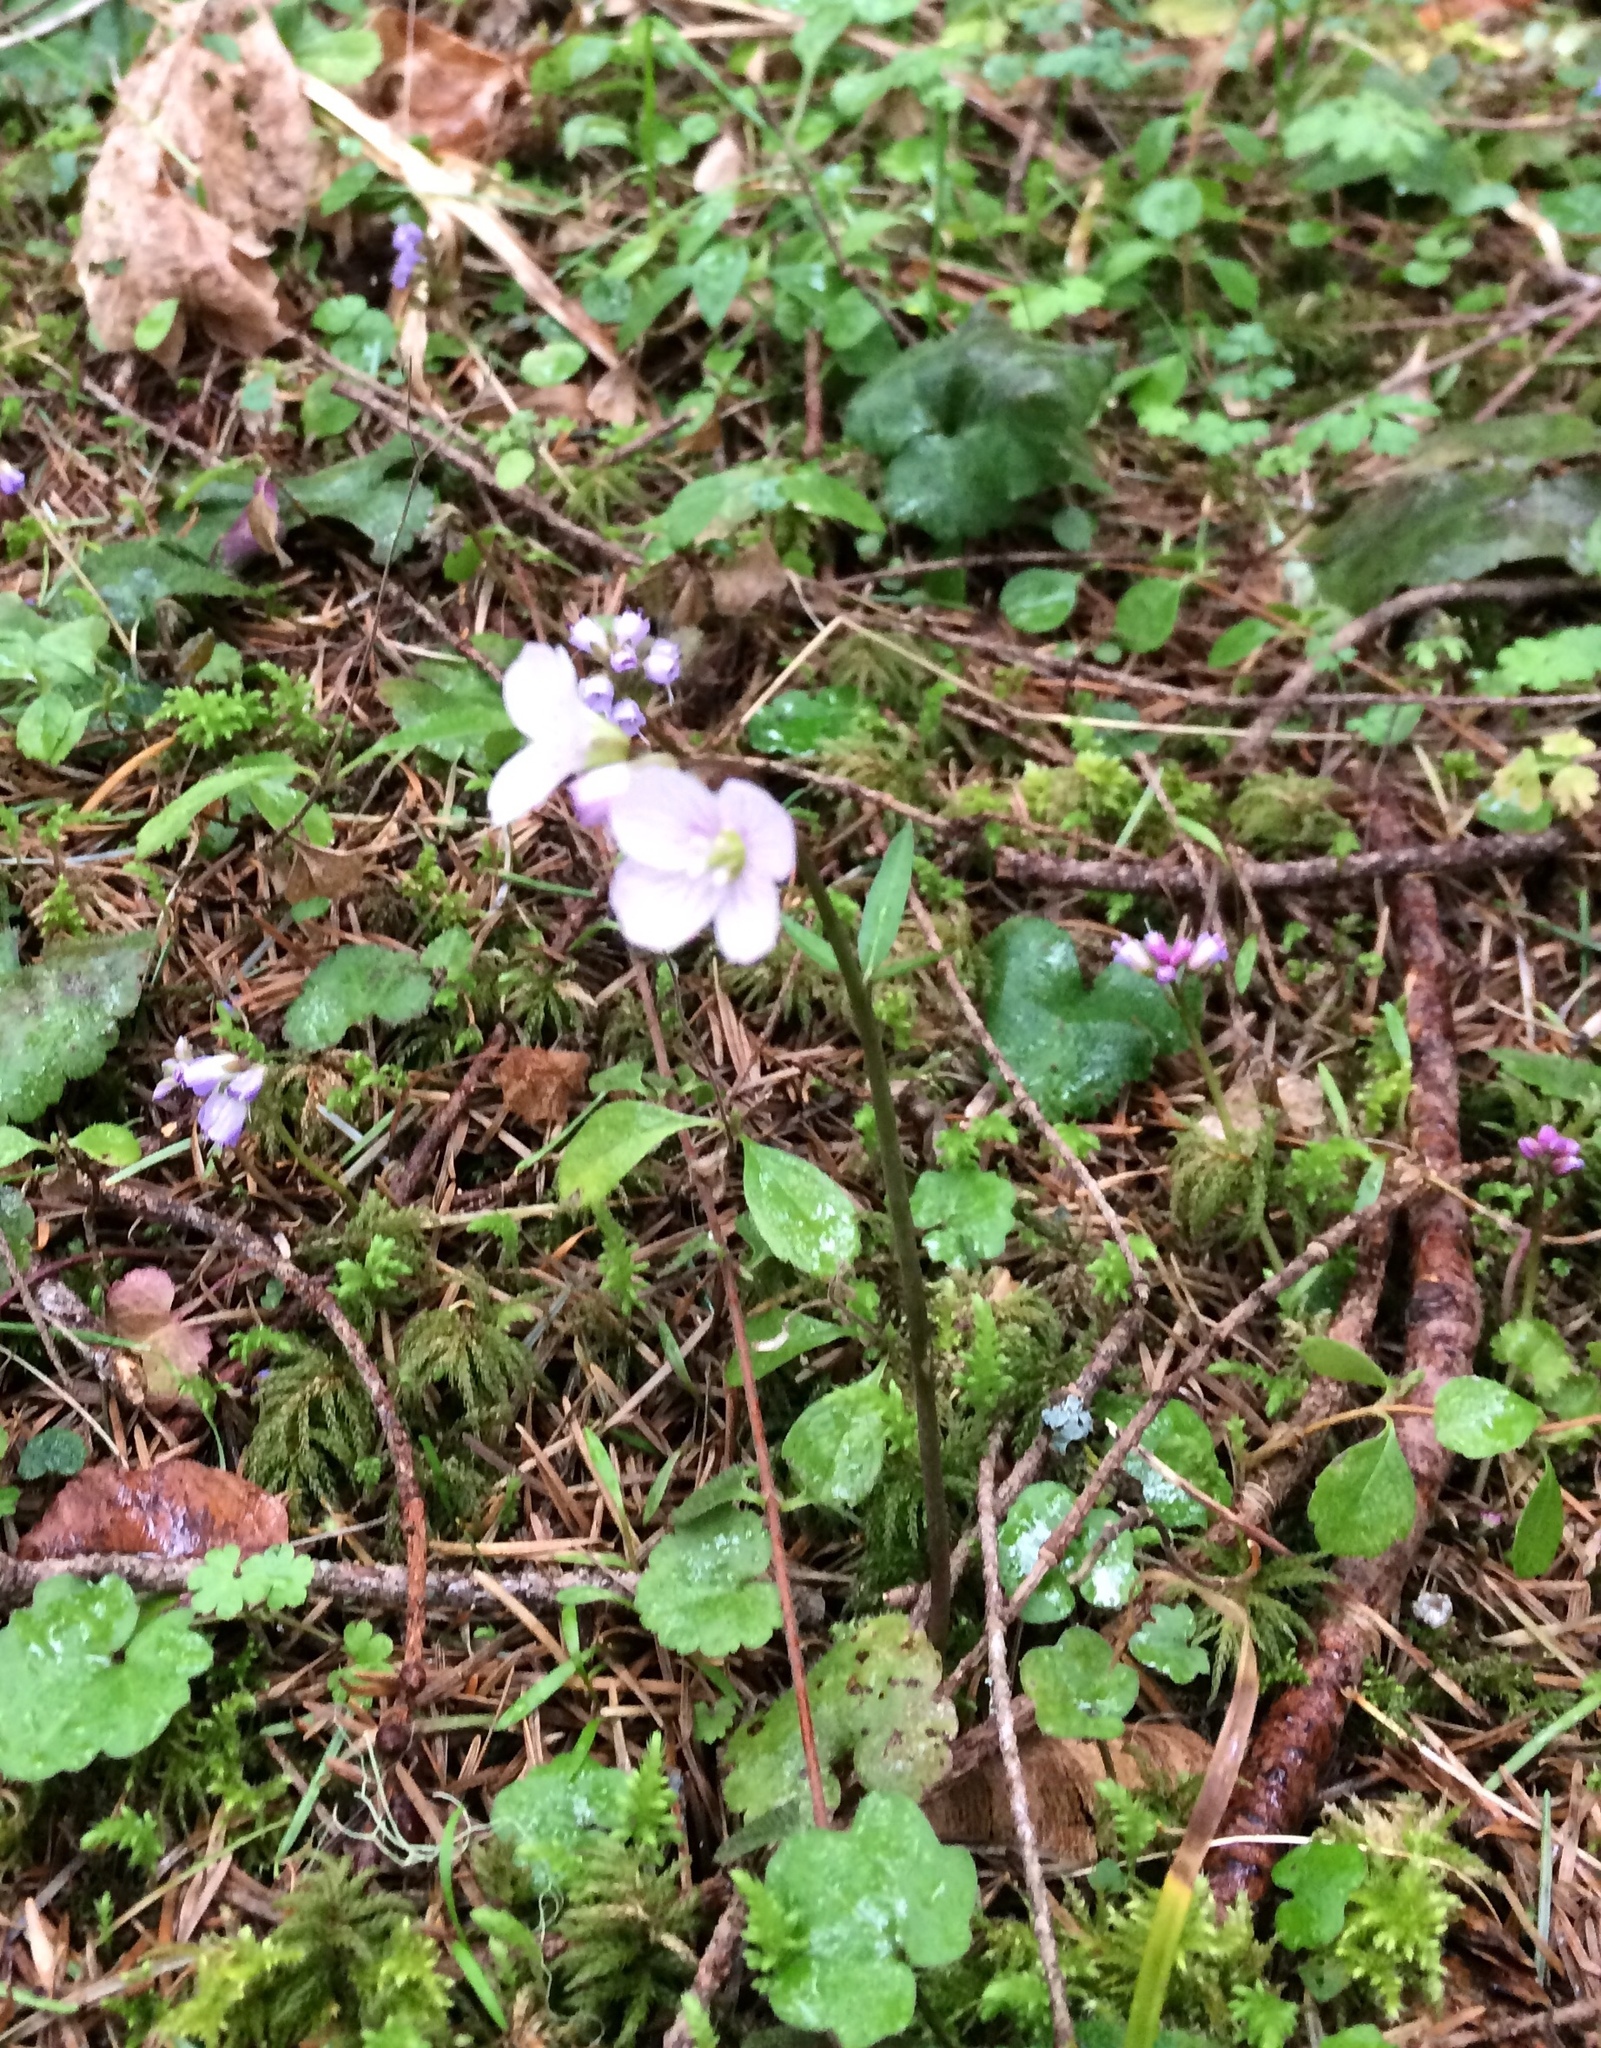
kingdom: Plantae
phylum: Tracheophyta
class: Magnoliopsida
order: Brassicales
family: Brassicaceae
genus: Cardamine
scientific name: Cardamine nuttallii
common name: Nuttall's toothwort
